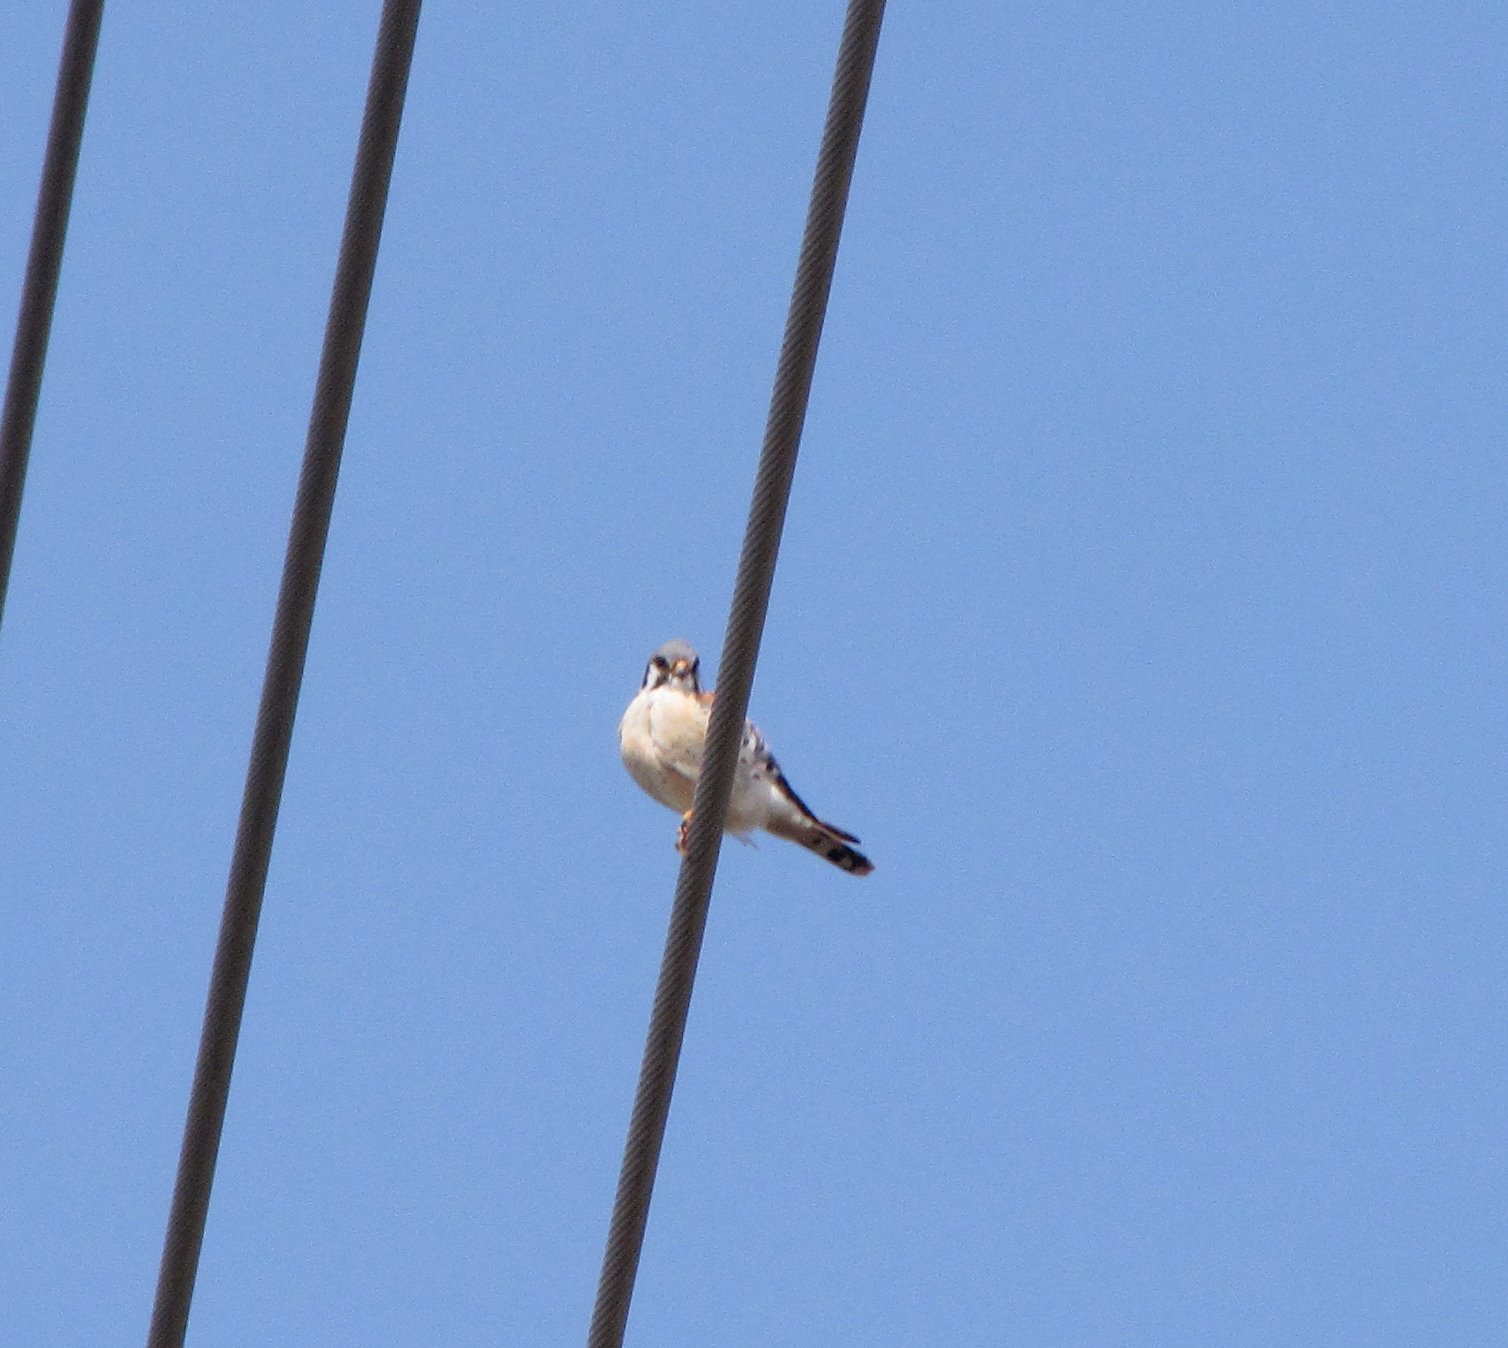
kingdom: Animalia
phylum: Chordata
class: Aves
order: Falconiformes
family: Falconidae
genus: Falco
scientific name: Falco sparverius
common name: American kestrel
